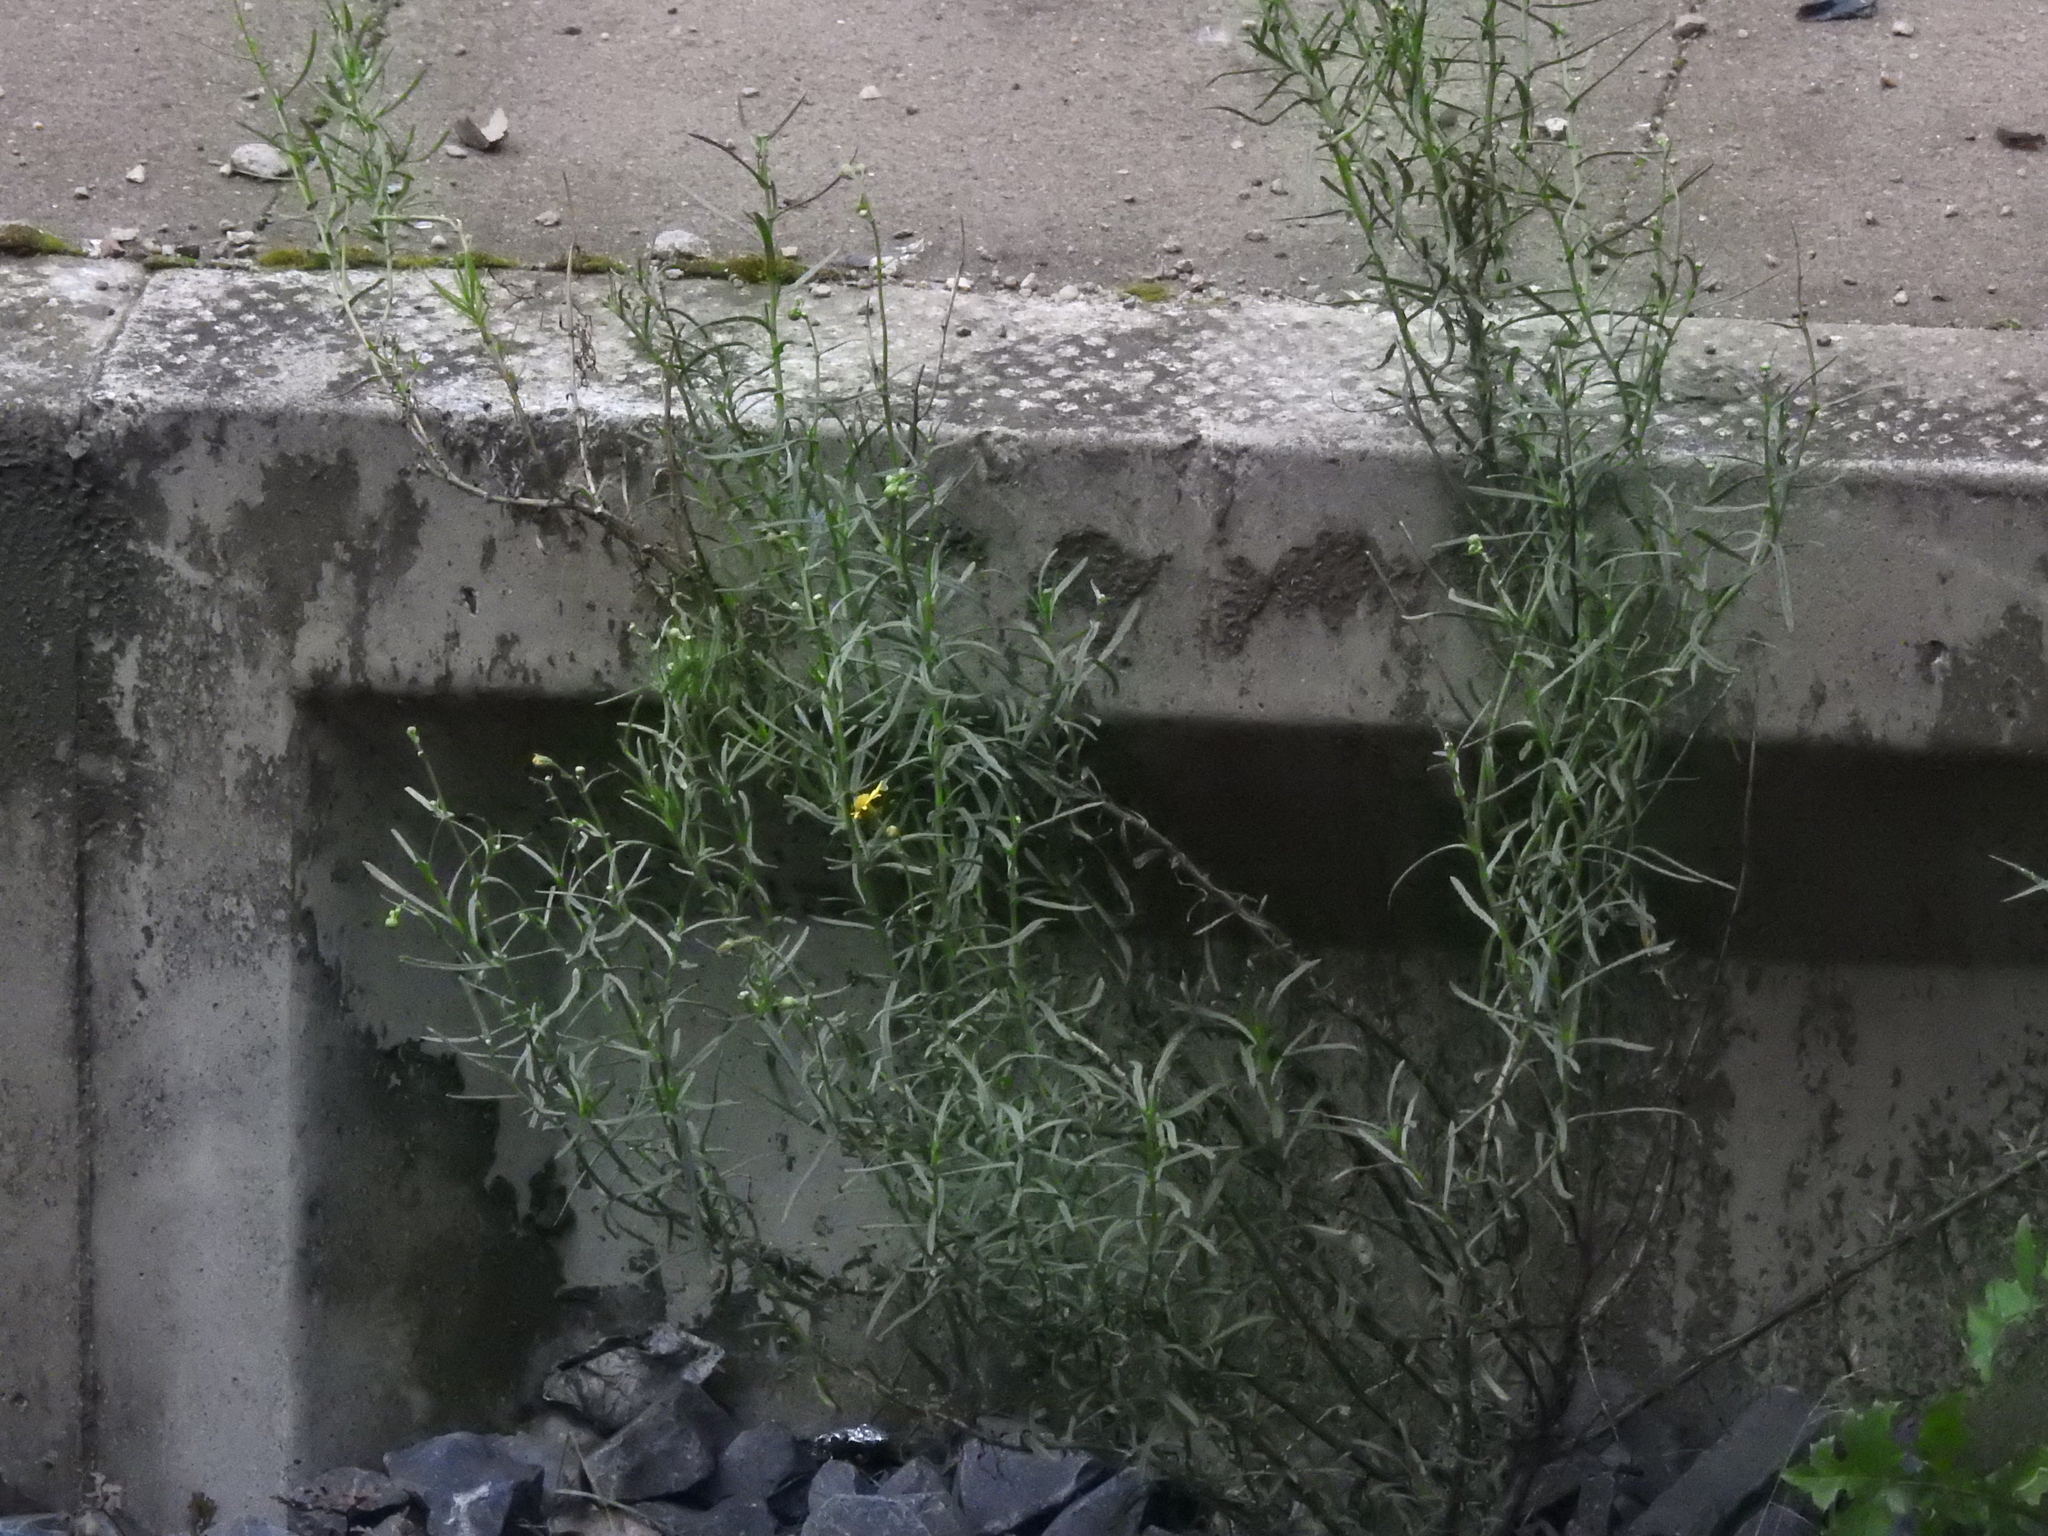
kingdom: Plantae
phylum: Tracheophyta
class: Magnoliopsida
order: Asterales
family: Asteraceae
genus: Senecio
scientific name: Senecio inaequidens
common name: Narrow-leaved ragwort
